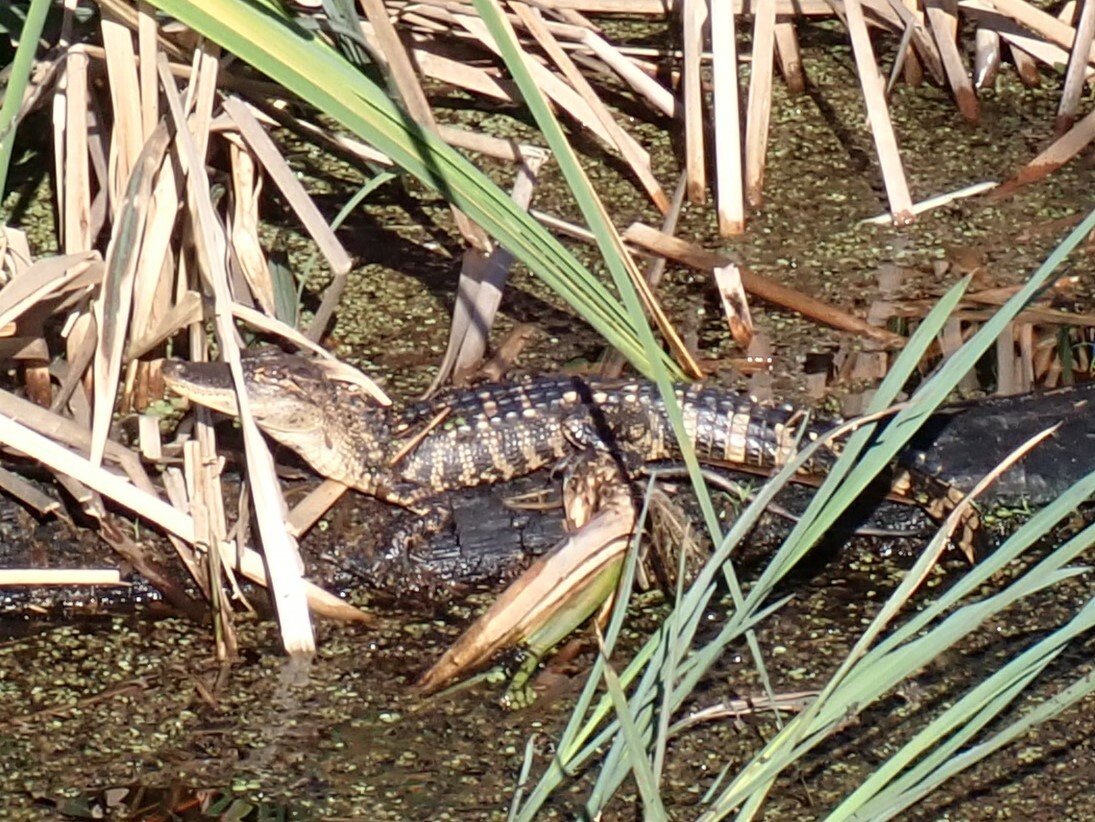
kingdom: Animalia
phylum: Chordata
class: Crocodylia
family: Alligatoridae
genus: Alligator
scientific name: Alligator mississippiensis
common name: American alligator
